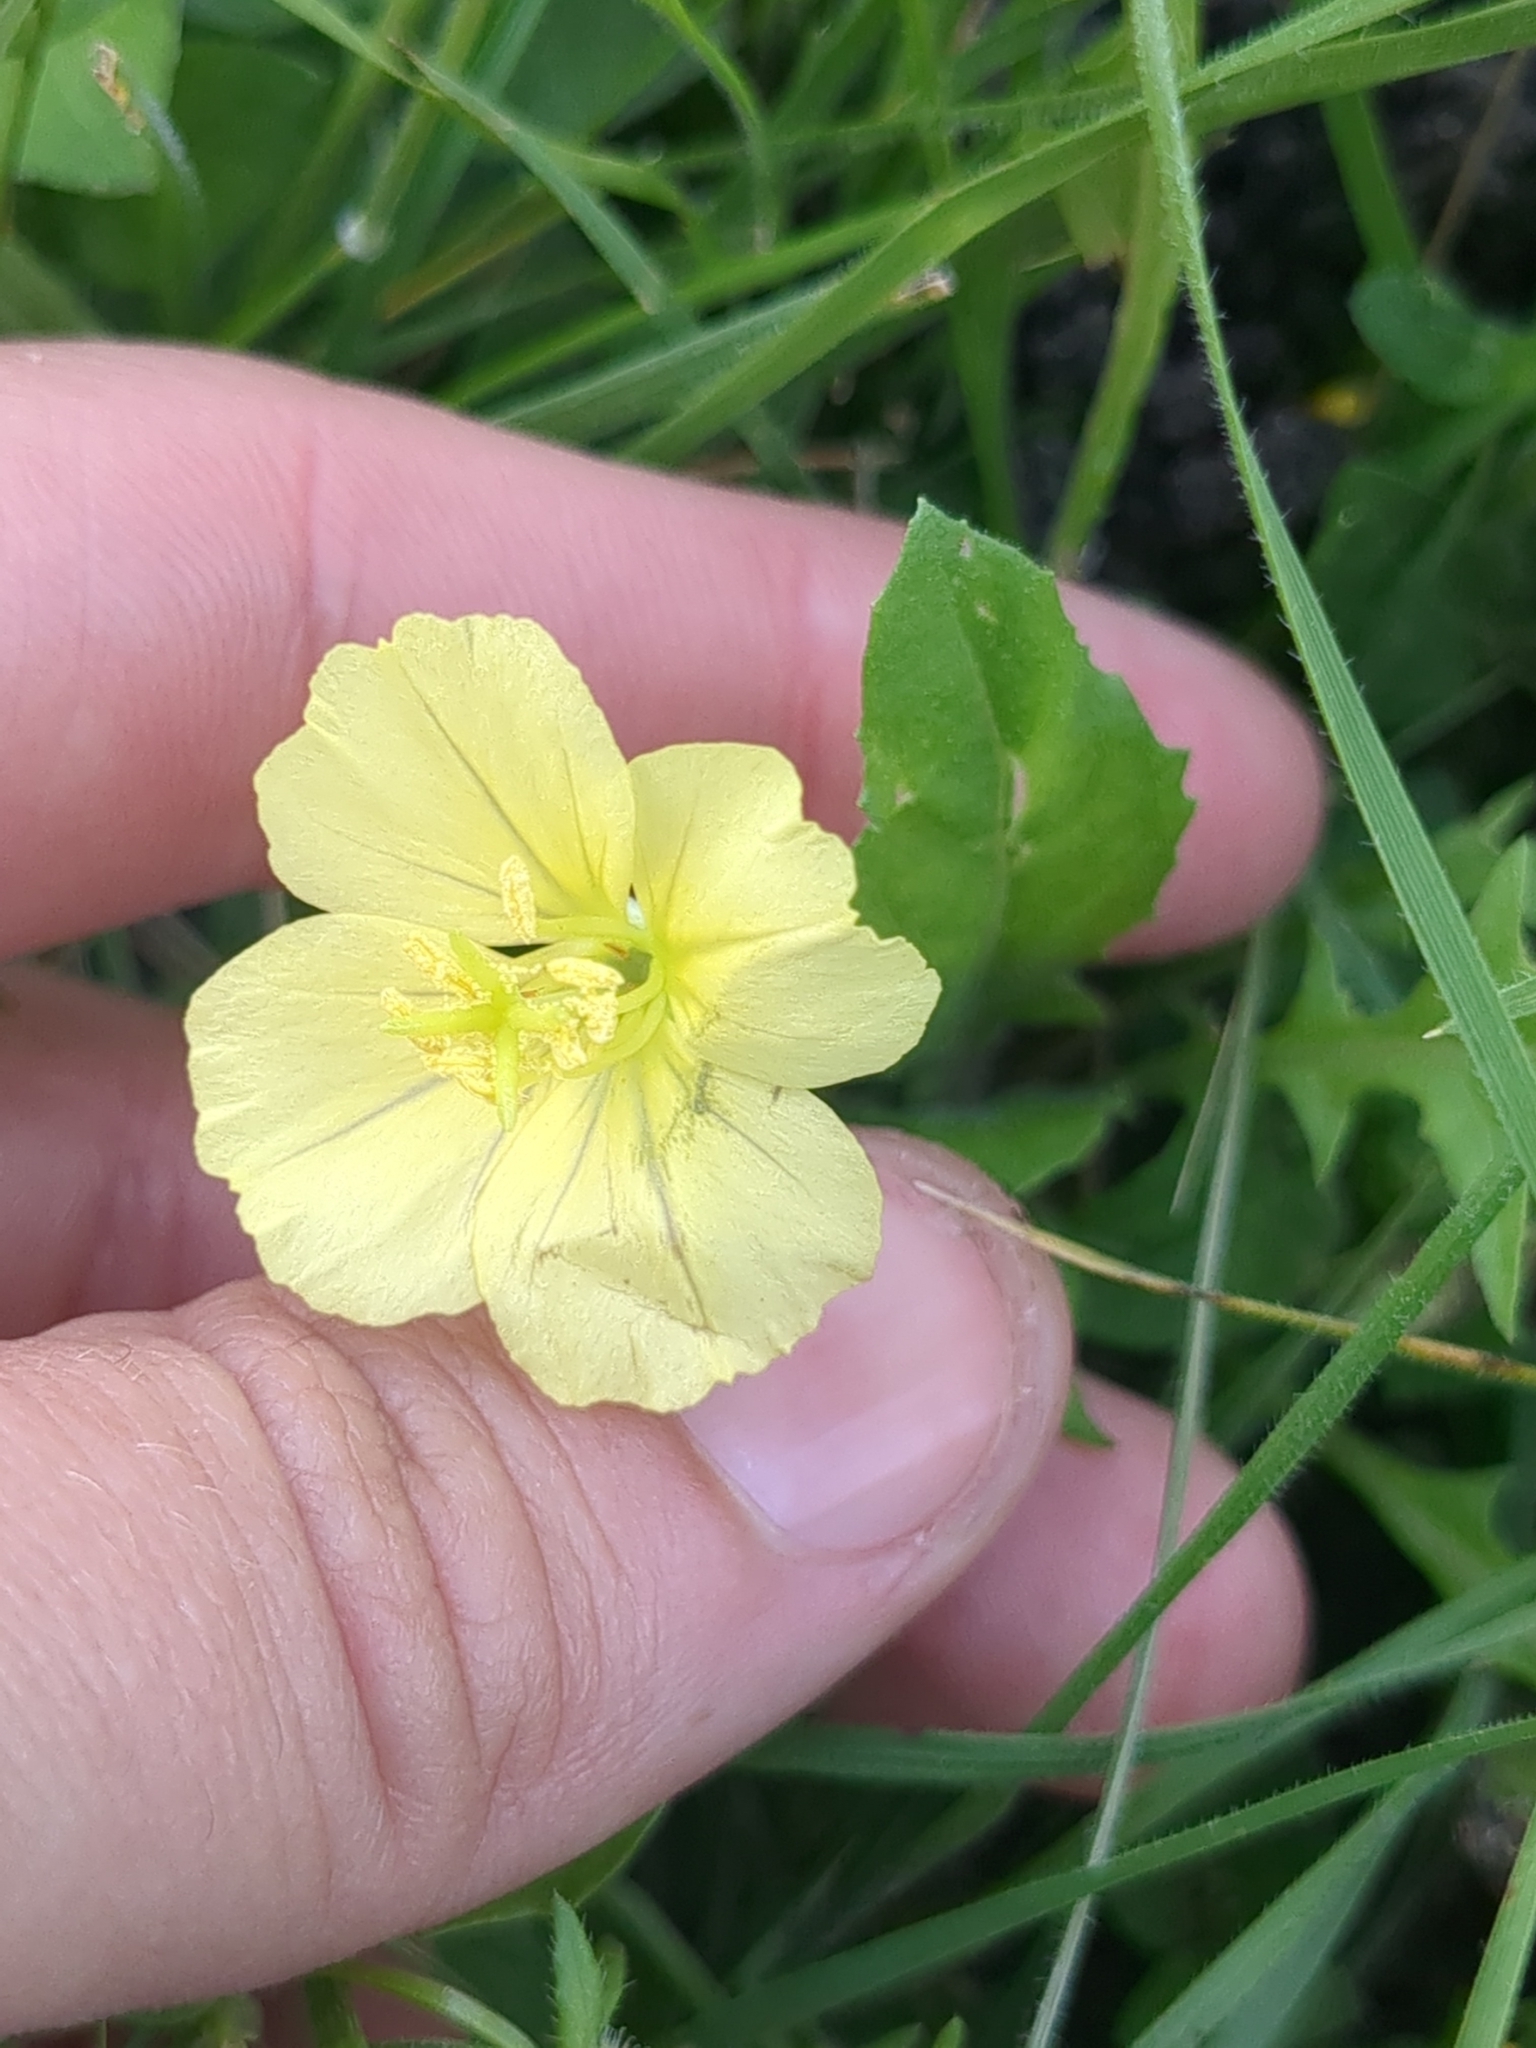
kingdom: Plantae
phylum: Tracheophyta
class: Magnoliopsida
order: Myrtales
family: Onagraceae
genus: Oenothera
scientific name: Oenothera triloba
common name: Sessile evening-primrose
